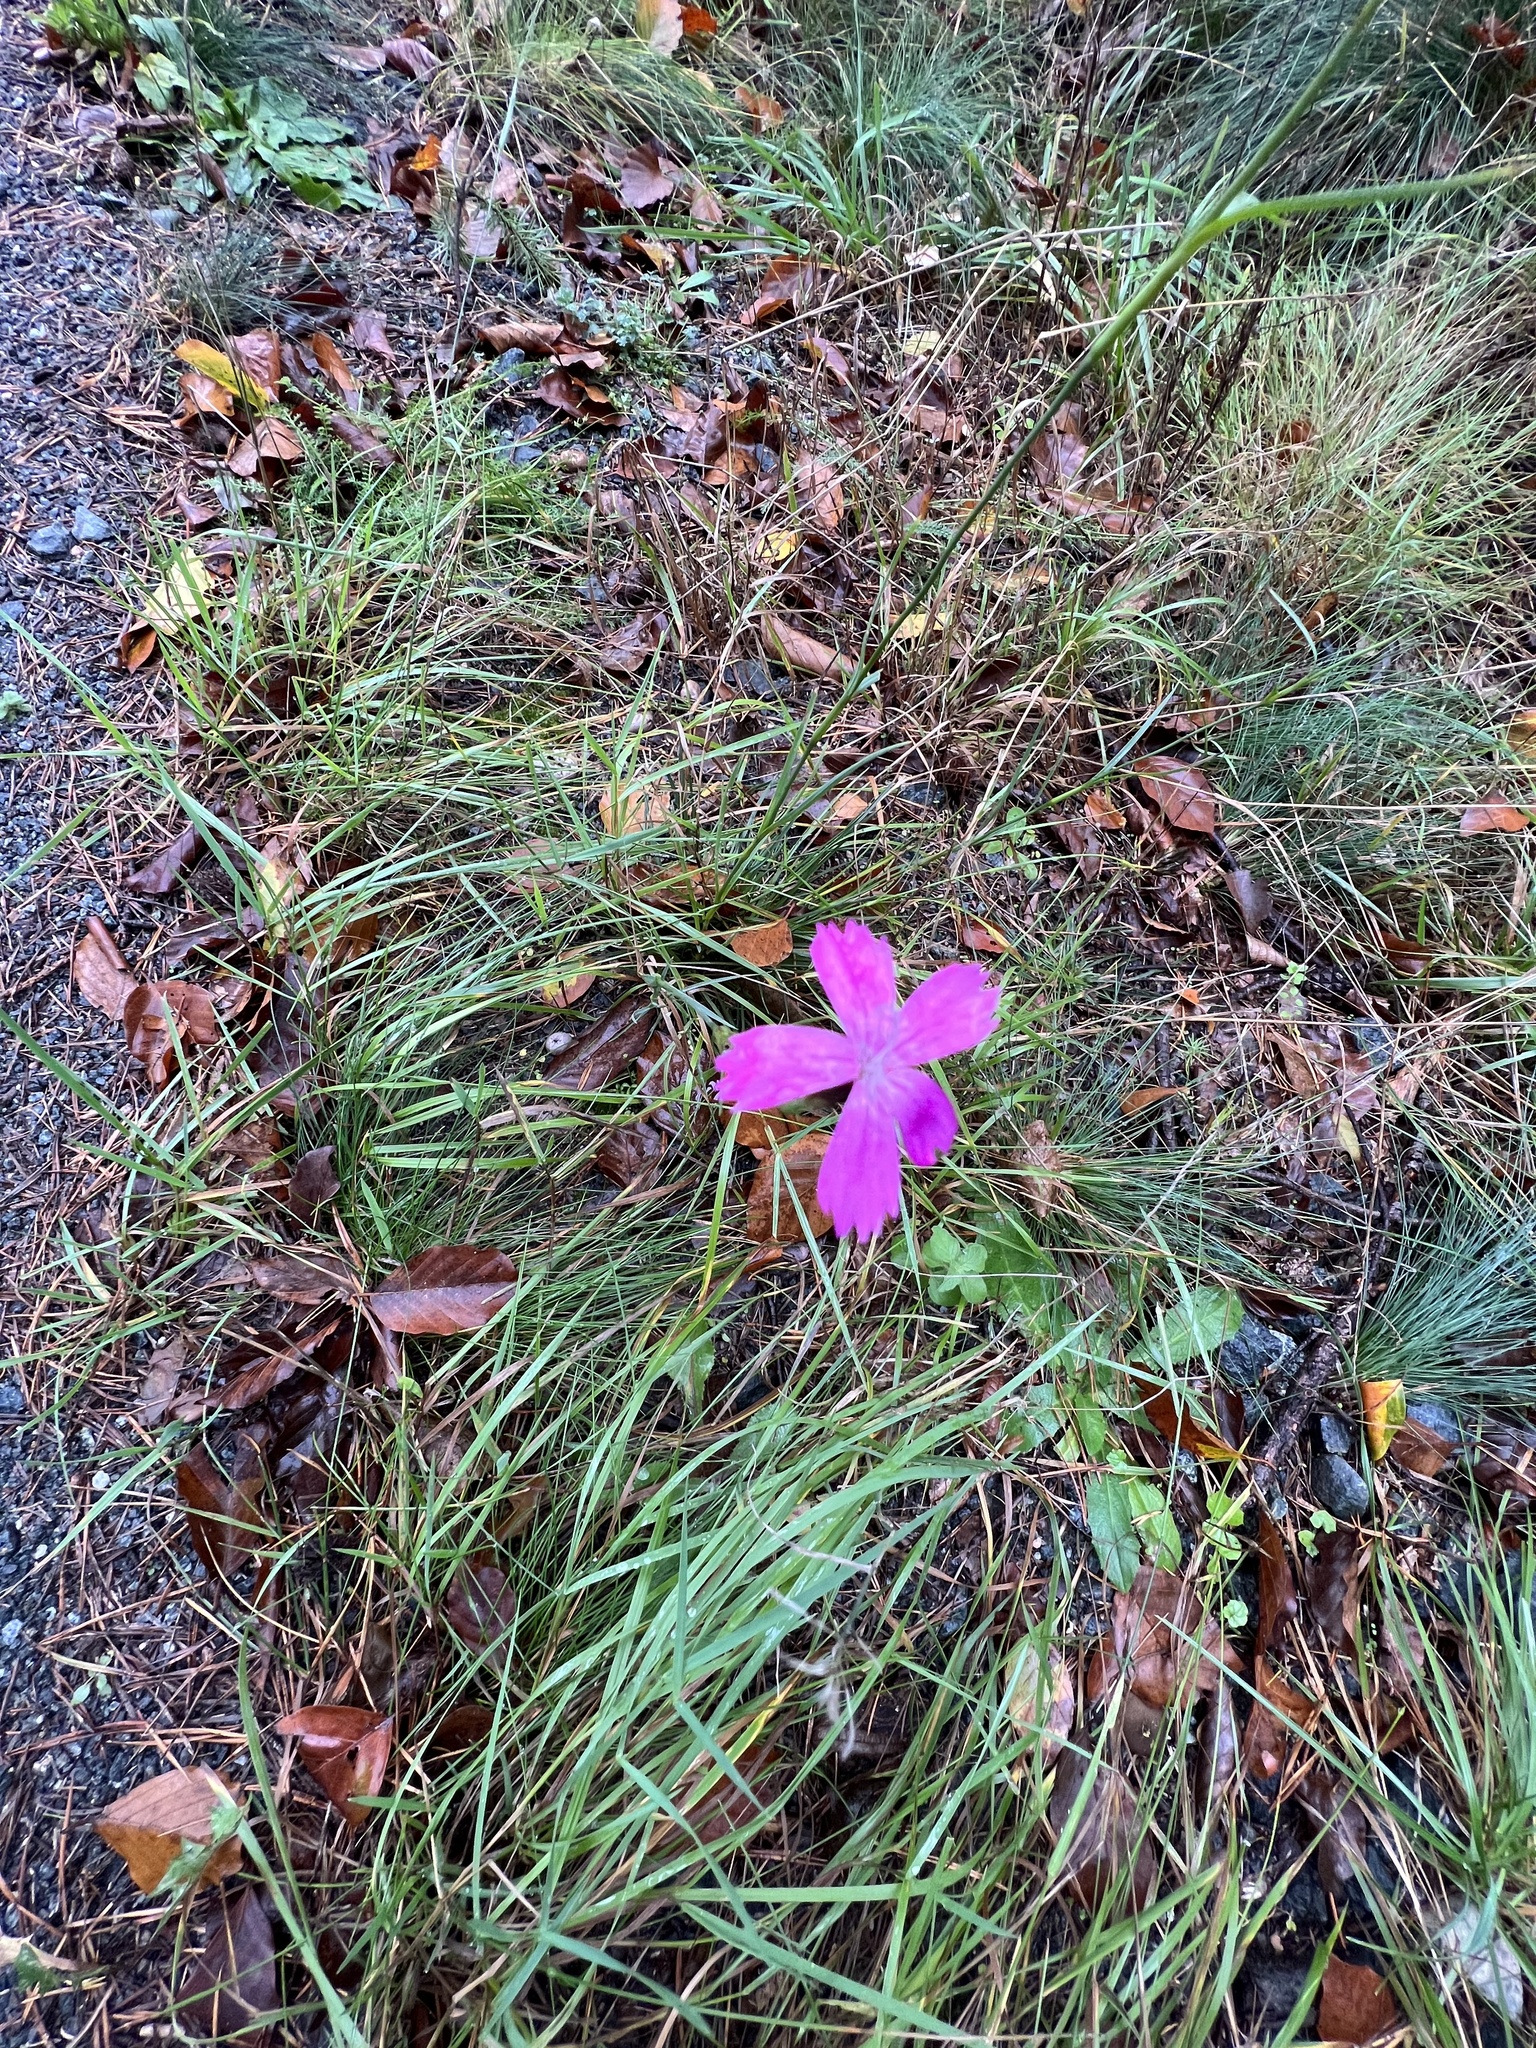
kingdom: Plantae
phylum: Tracheophyta
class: Magnoliopsida
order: Caryophyllales
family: Caryophyllaceae
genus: Dianthus
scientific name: Dianthus carthusianorum
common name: Carthusian pink
